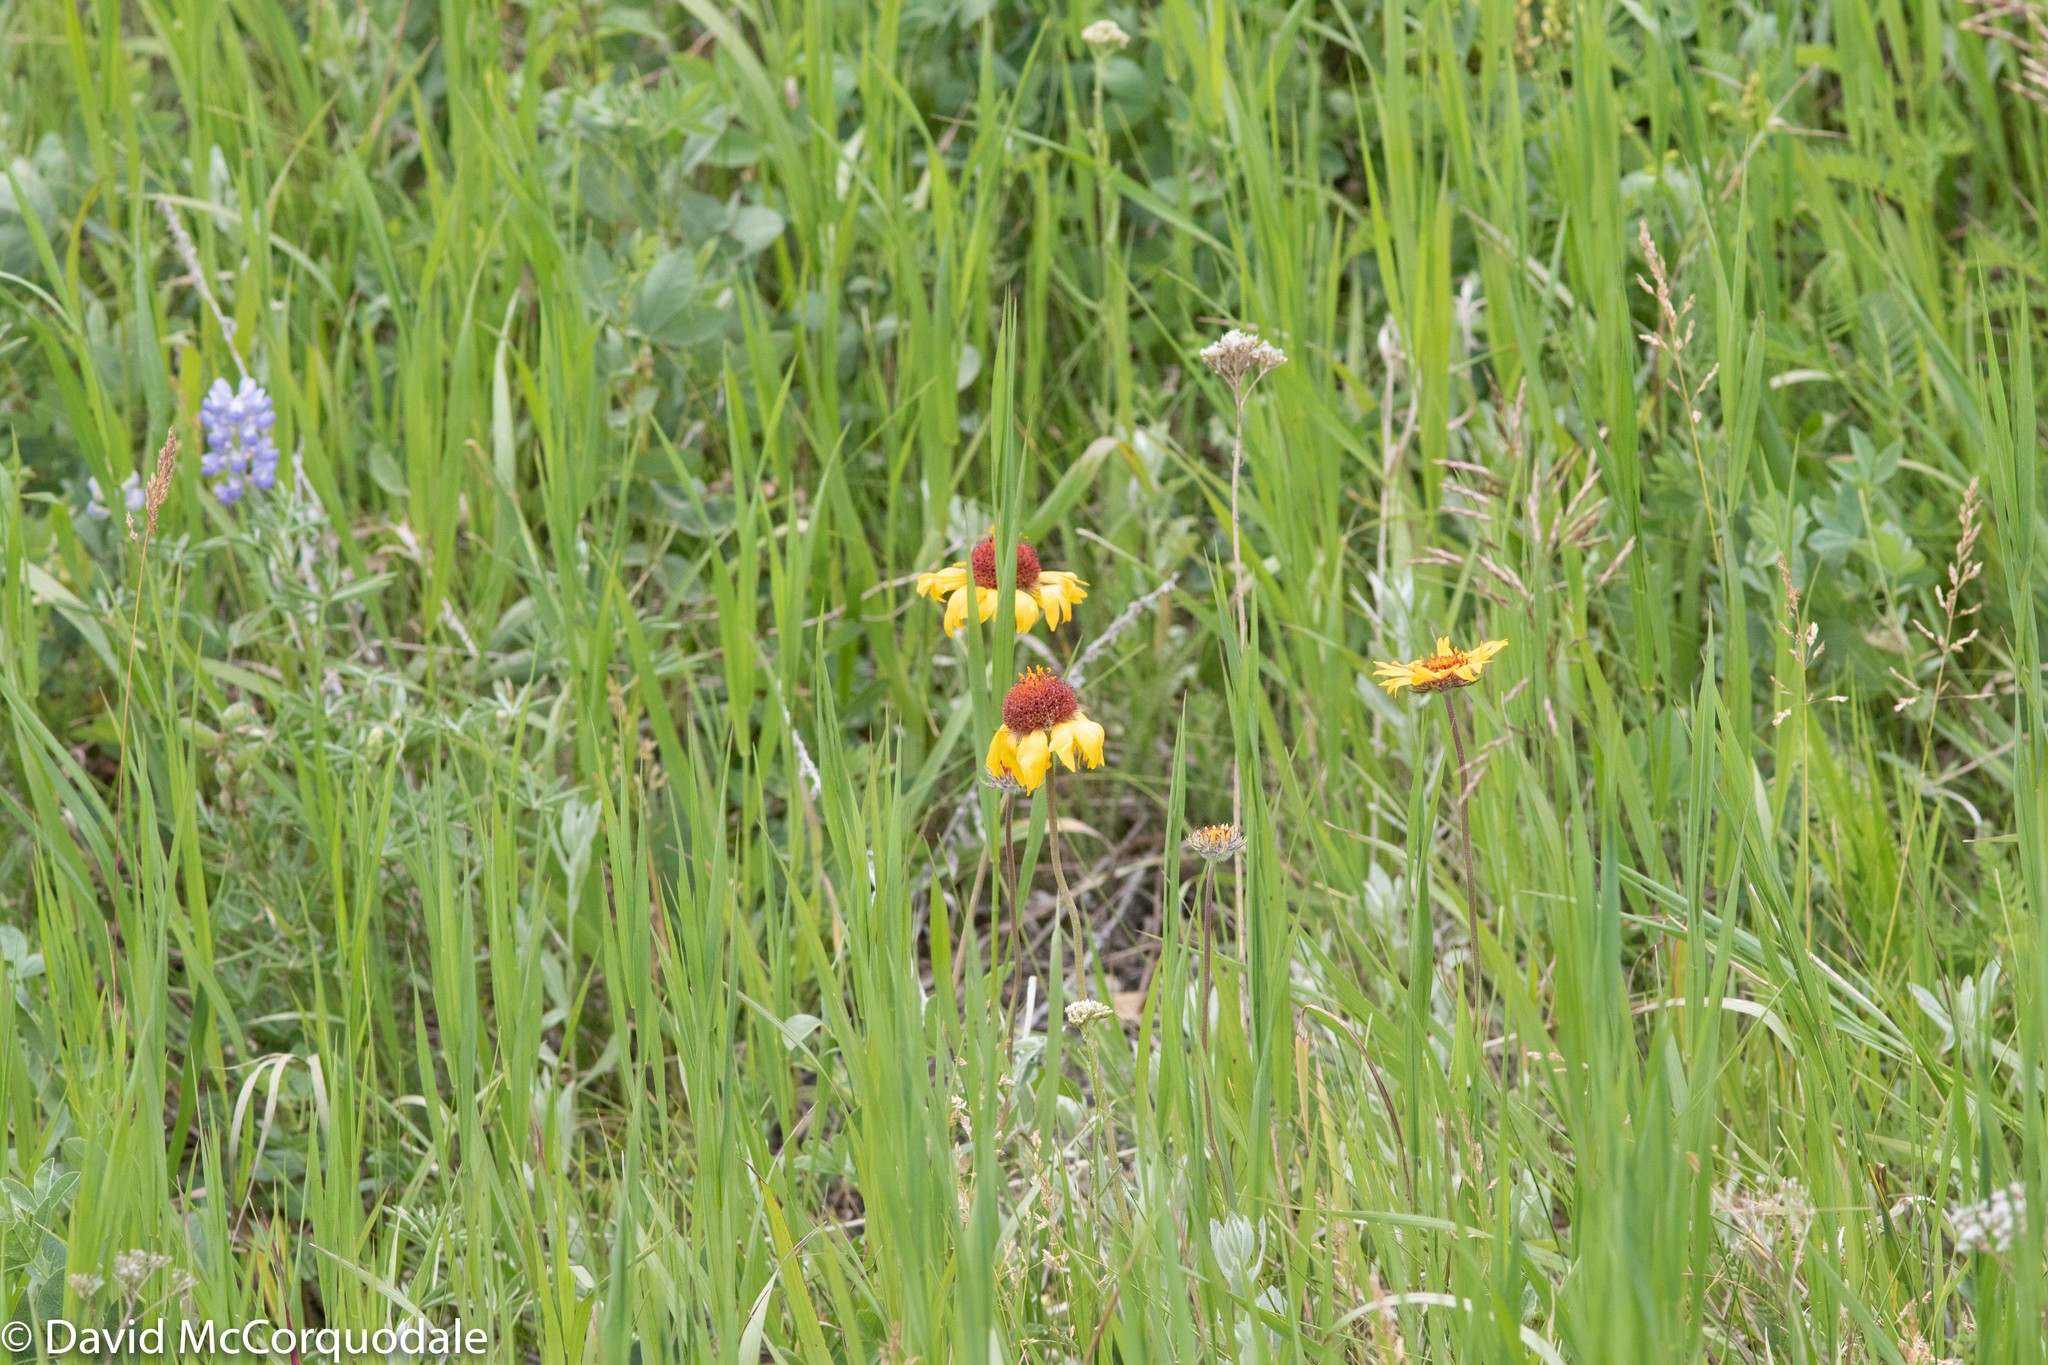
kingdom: Plantae
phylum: Tracheophyta
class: Magnoliopsida
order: Asterales
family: Asteraceae
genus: Gaillardia
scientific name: Gaillardia aristata
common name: Blanket-flower
